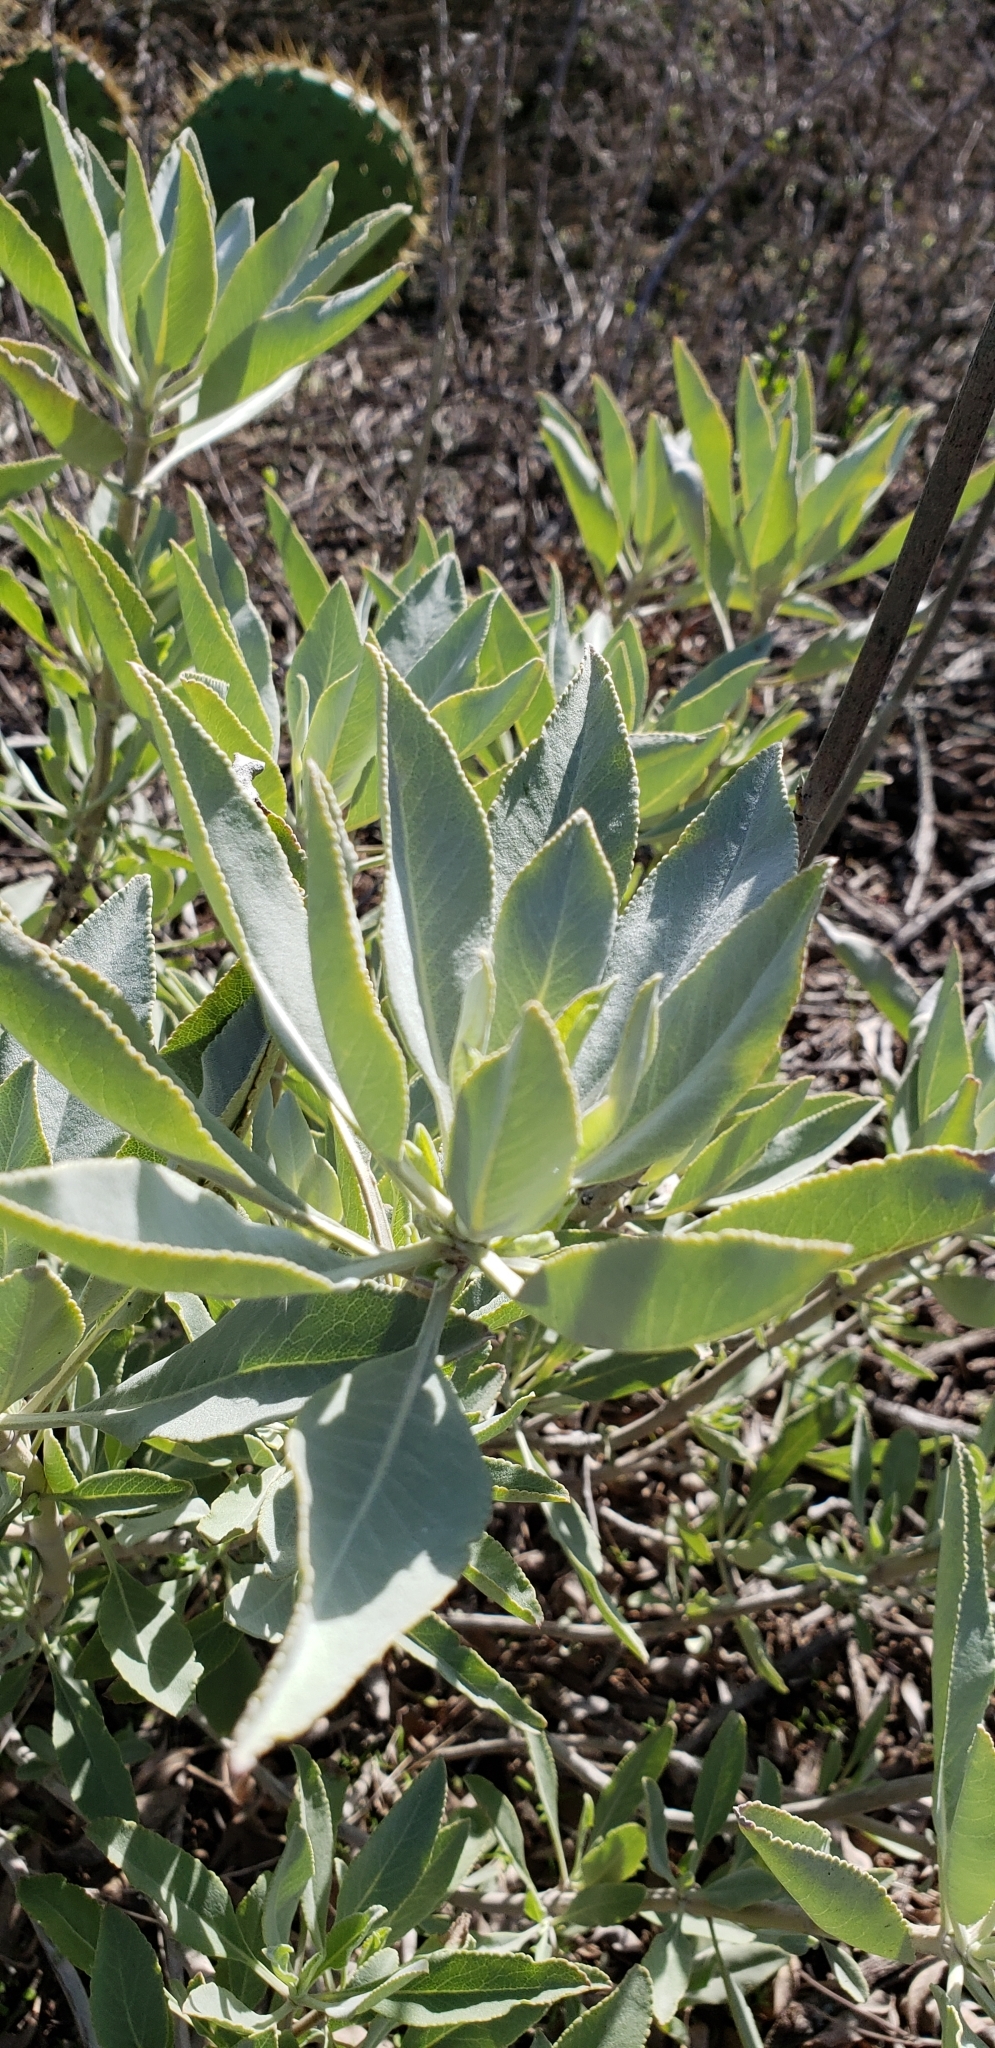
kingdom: Plantae
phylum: Tracheophyta
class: Magnoliopsida
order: Lamiales
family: Lamiaceae
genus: Salvia
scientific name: Salvia apiana
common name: White sage
